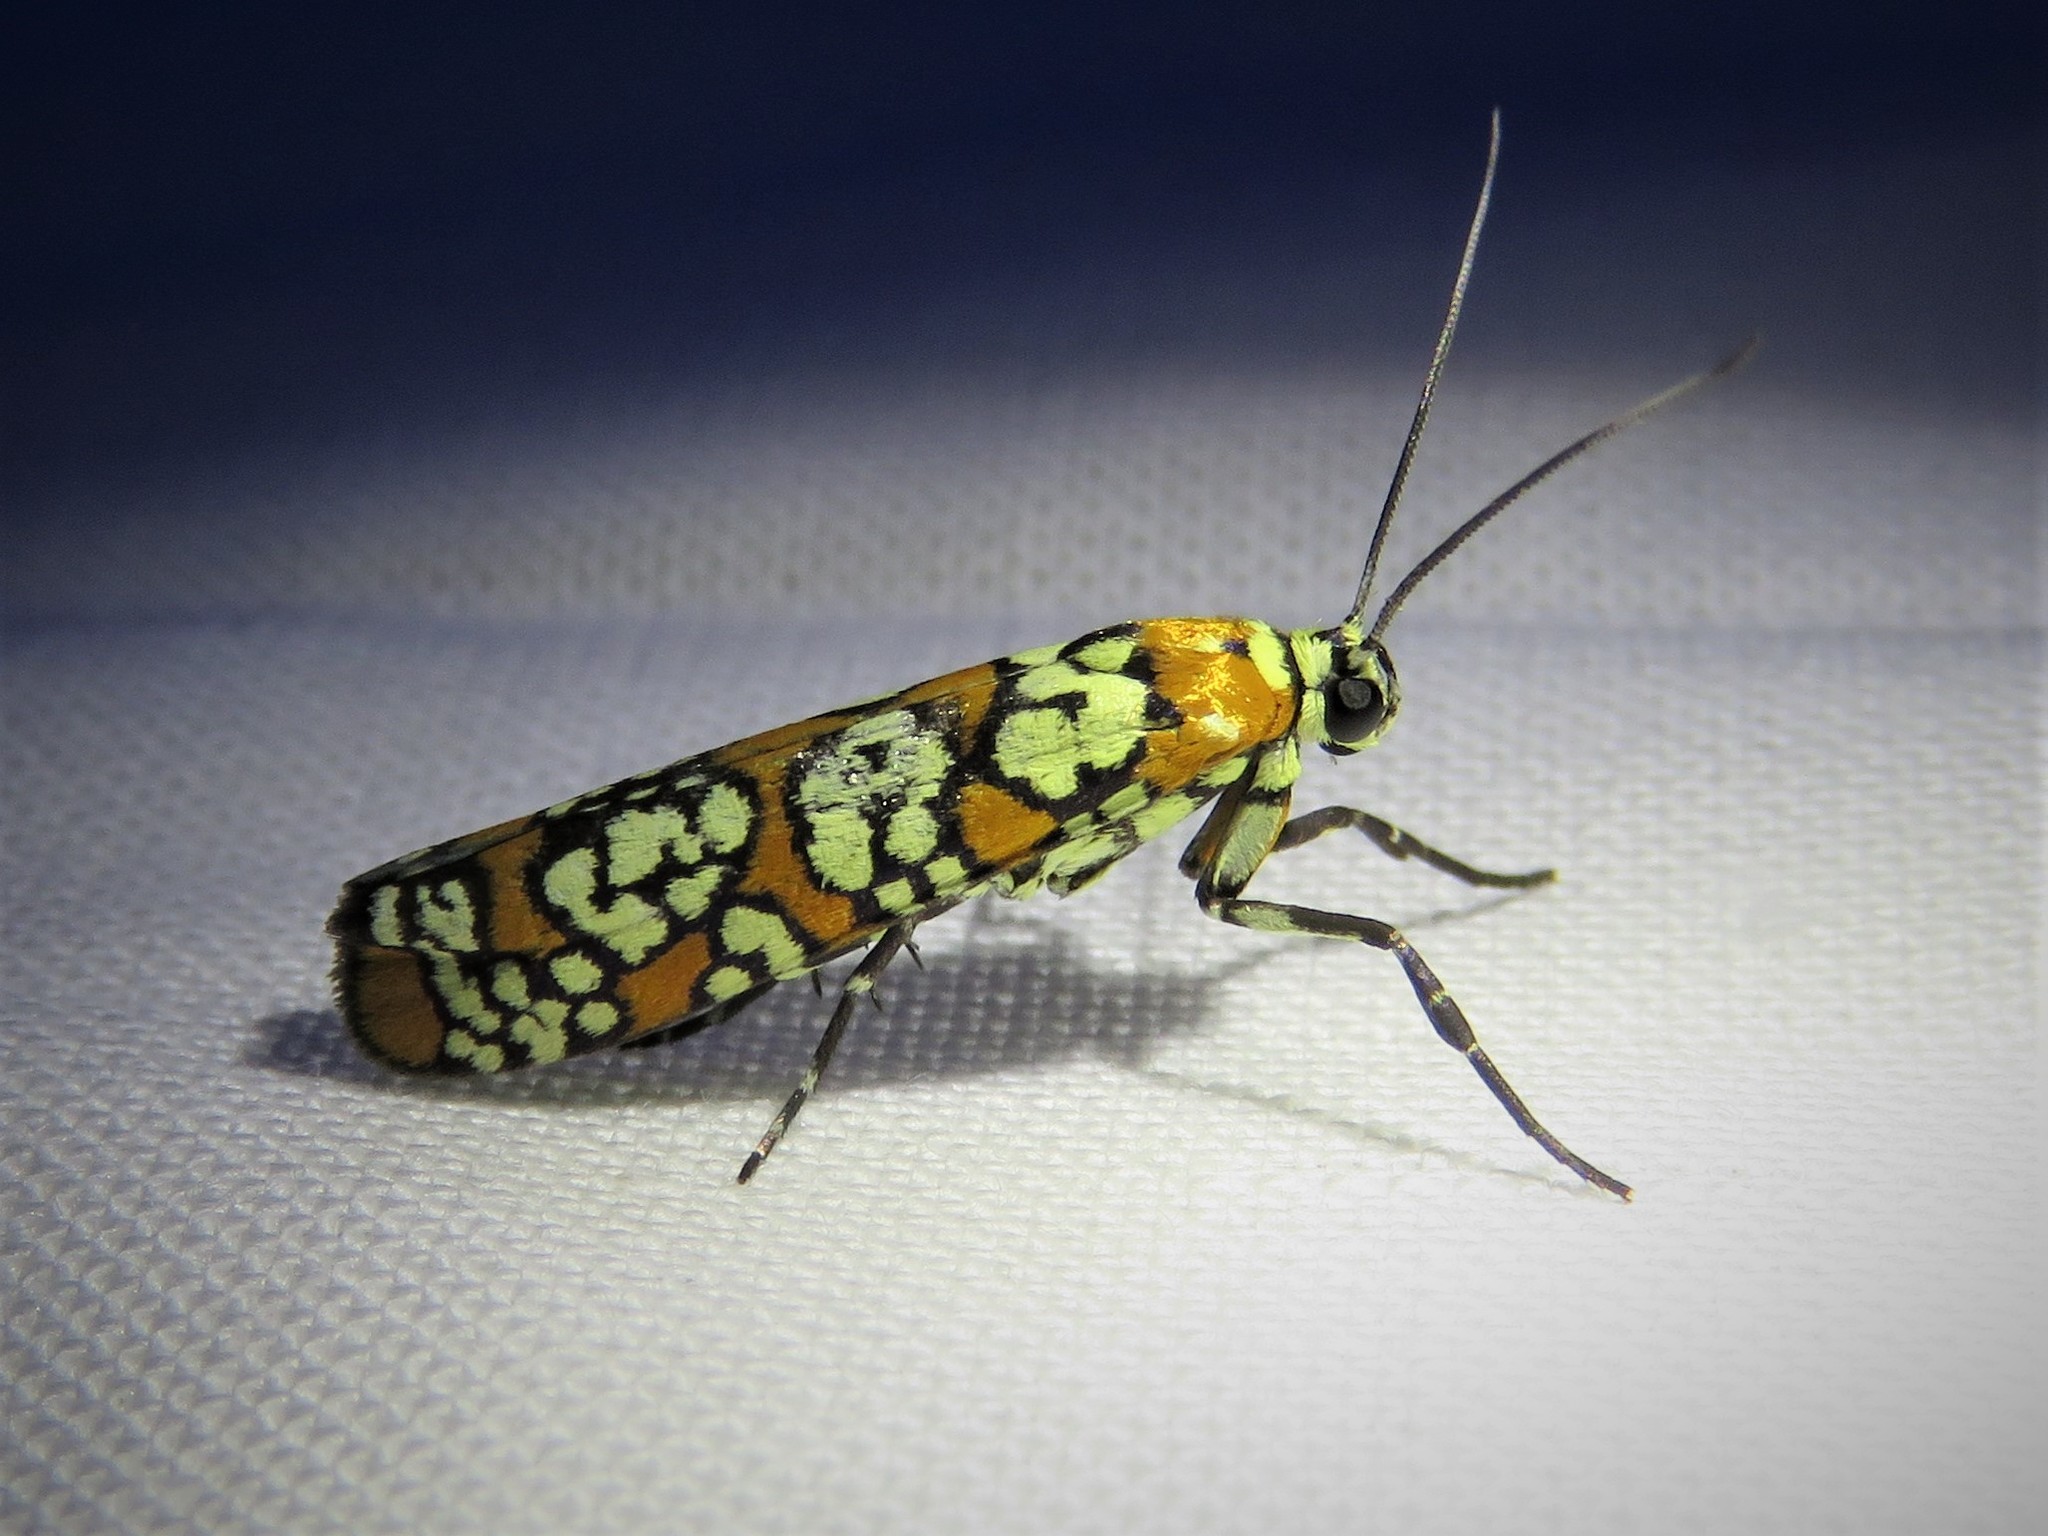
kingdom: Animalia
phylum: Arthropoda
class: Insecta
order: Lepidoptera
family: Attevidae
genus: Atteva
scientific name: Atteva punctella
